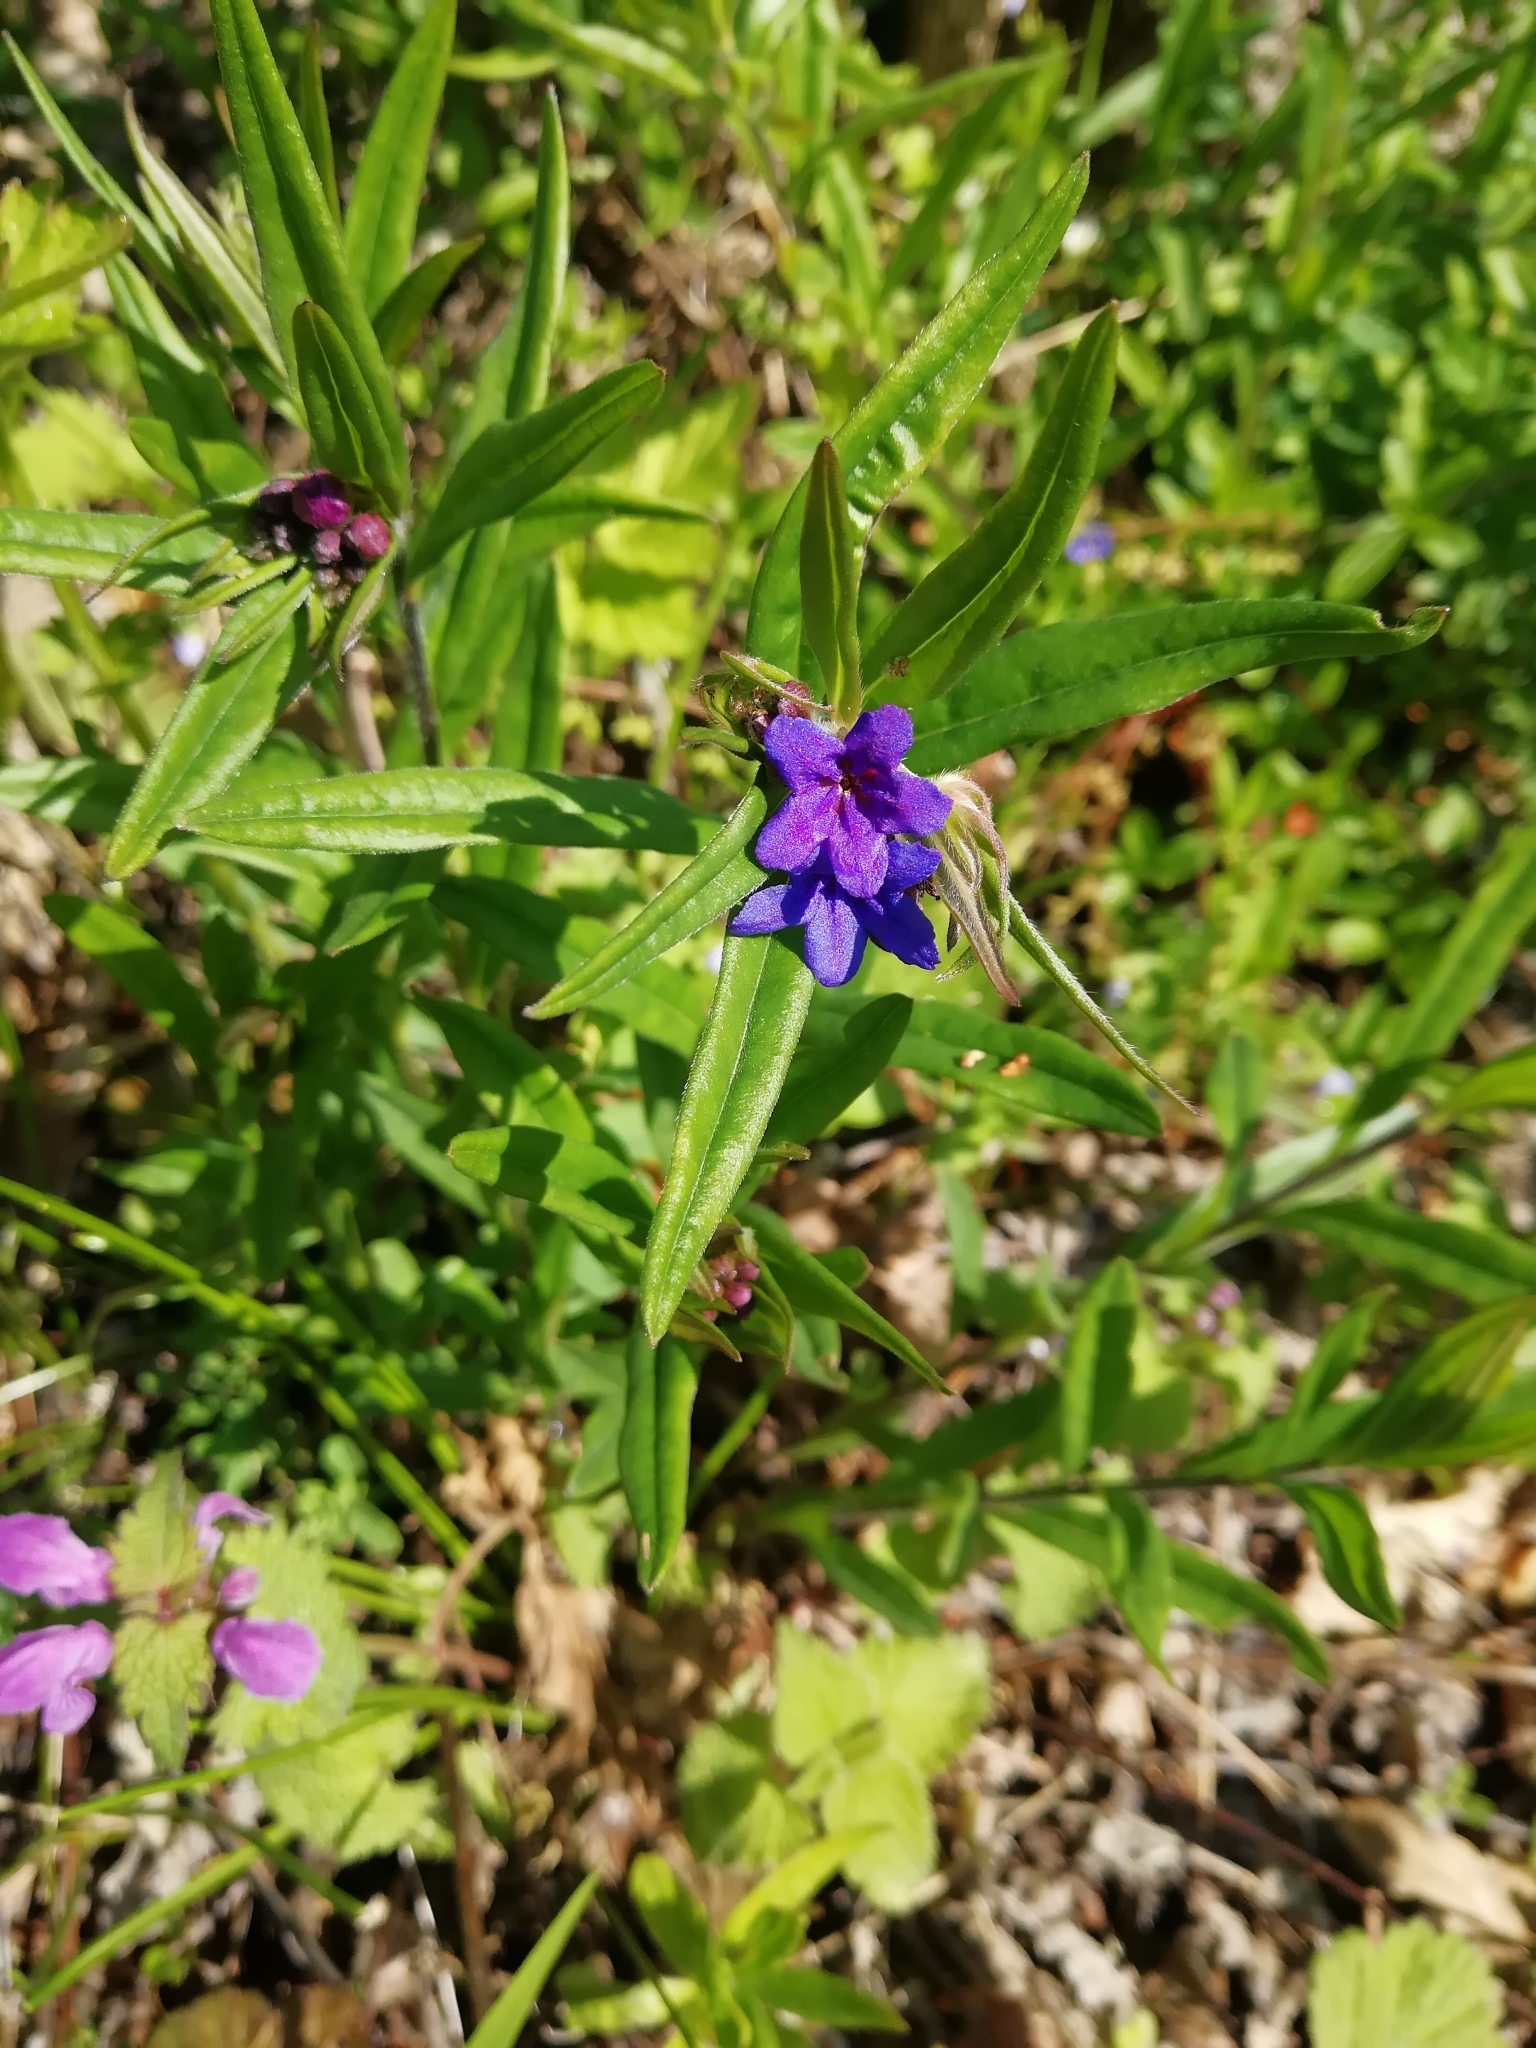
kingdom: Plantae
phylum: Tracheophyta
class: Magnoliopsida
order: Boraginales
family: Boraginaceae
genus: Aegonychon
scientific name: Aegonychon purpurocaeruleum
